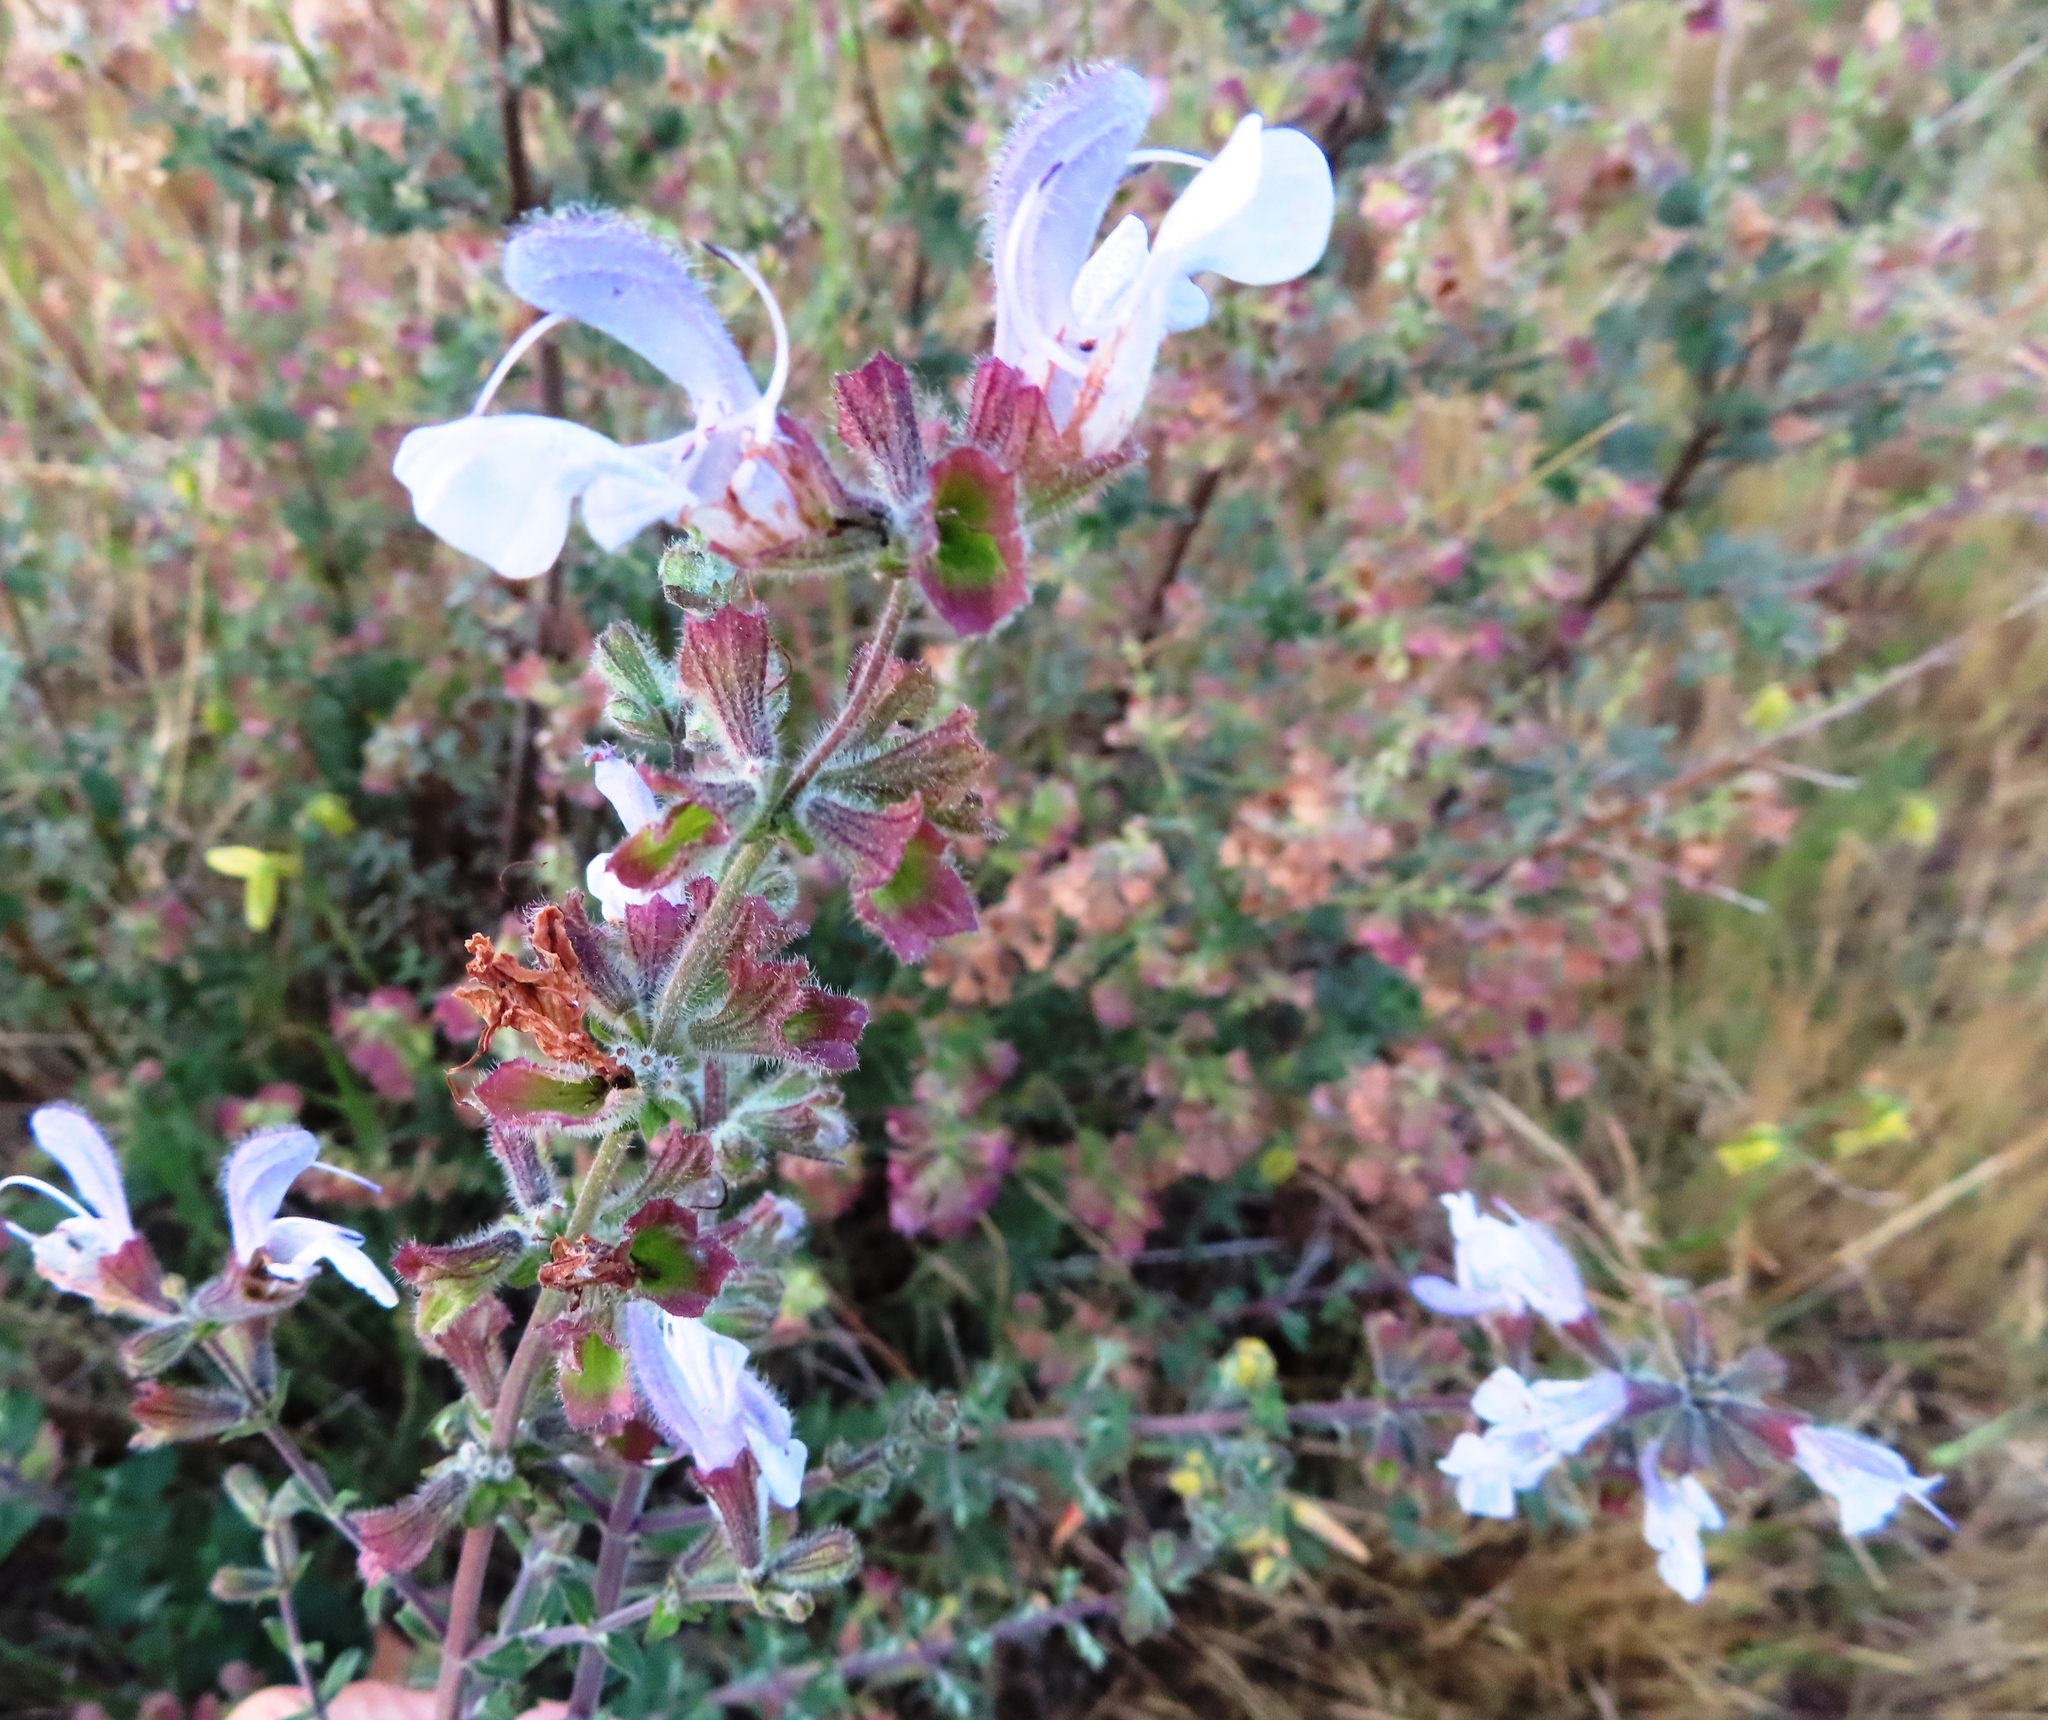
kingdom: Plantae
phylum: Tracheophyta
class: Magnoliopsida
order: Lamiales
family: Lamiaceae
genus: Salvia
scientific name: Salvia africana
